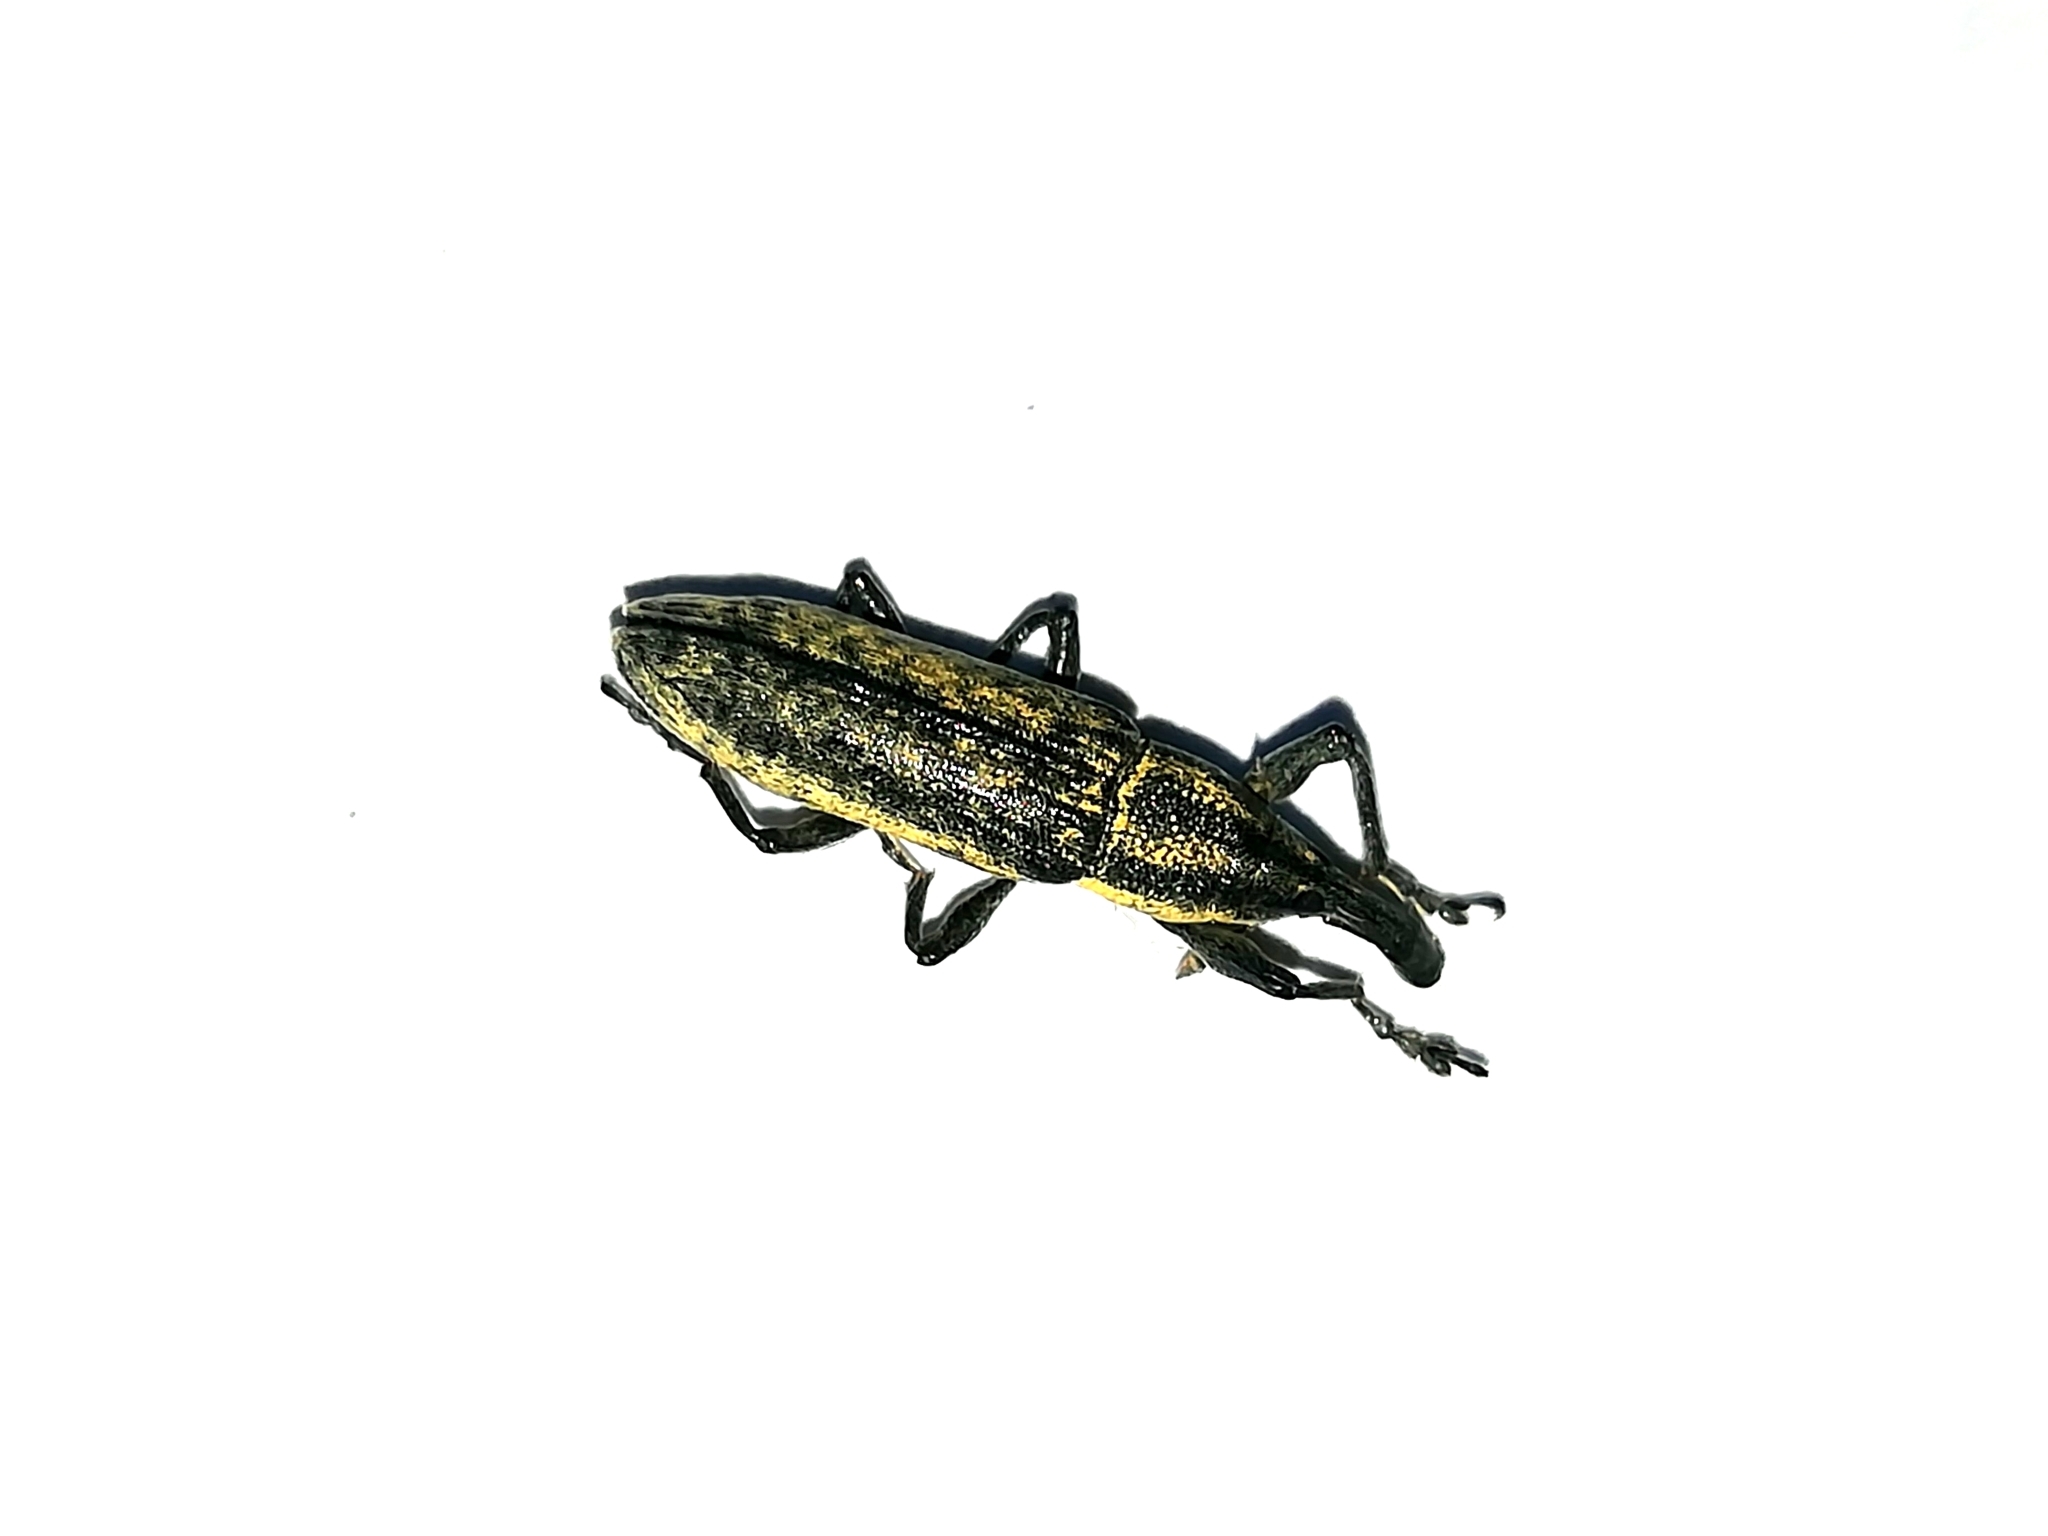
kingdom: Animalia
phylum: Arthropoda
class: Insecta
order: Coleoptera
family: Curculionidae
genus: Lixus
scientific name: Lixus fasciculatus
